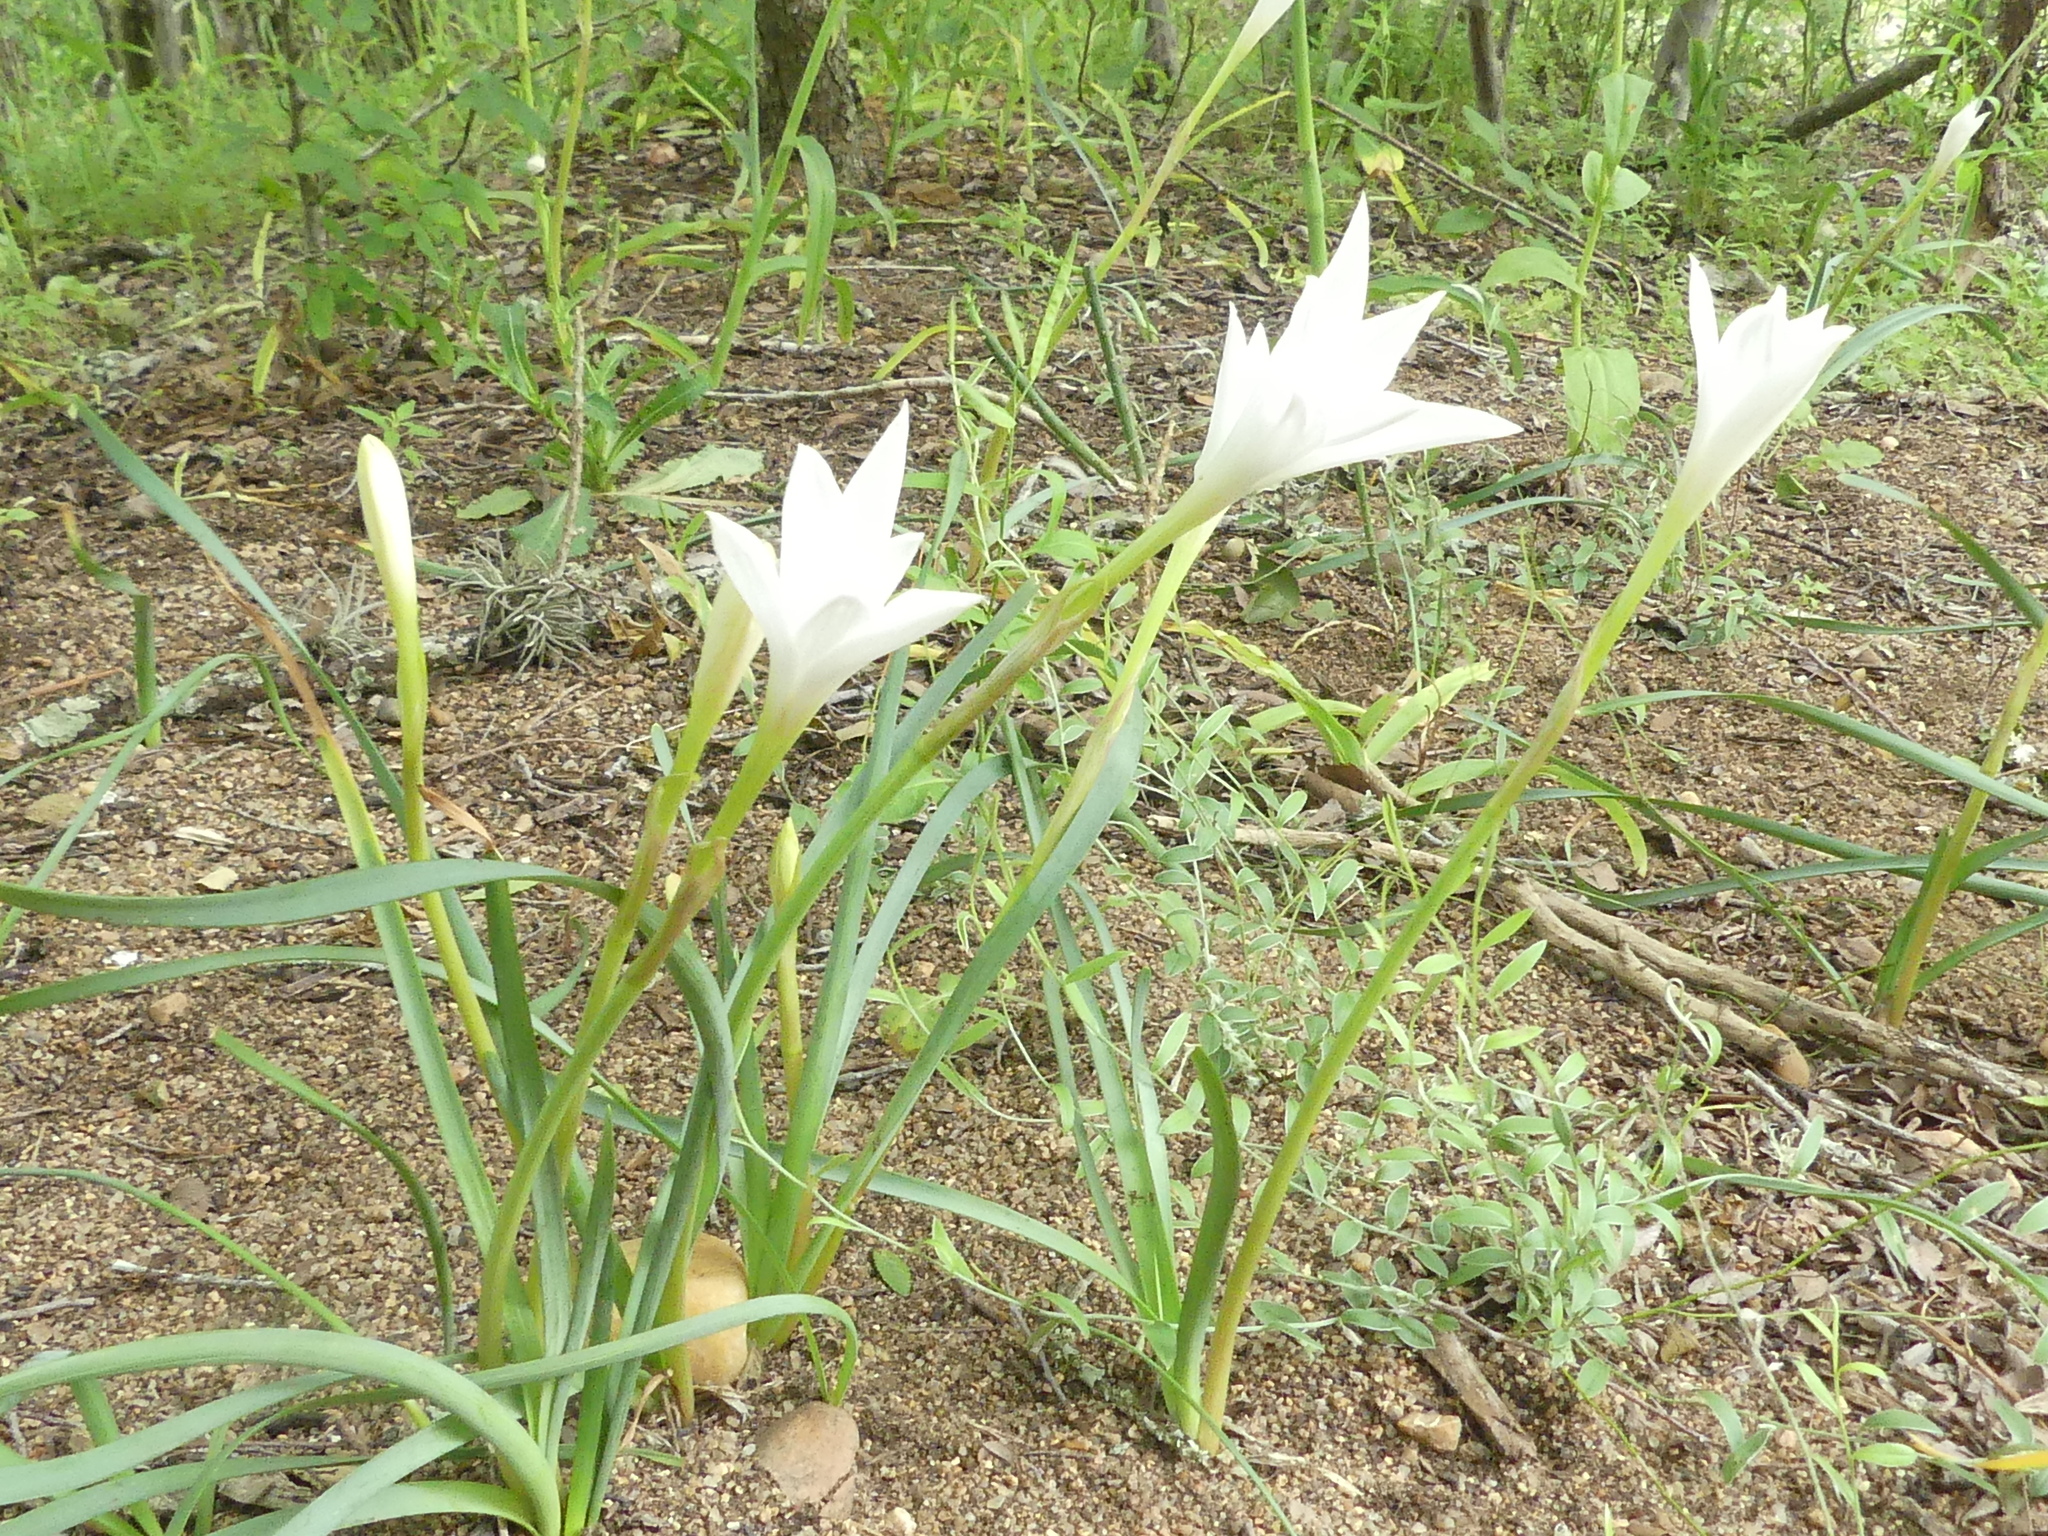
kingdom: Plantae
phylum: Tracheophyta
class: Liliopsida
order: Asparagales
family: Amaryllidaceae
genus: Zephyranthes
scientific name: Zephyranthes drummondii
